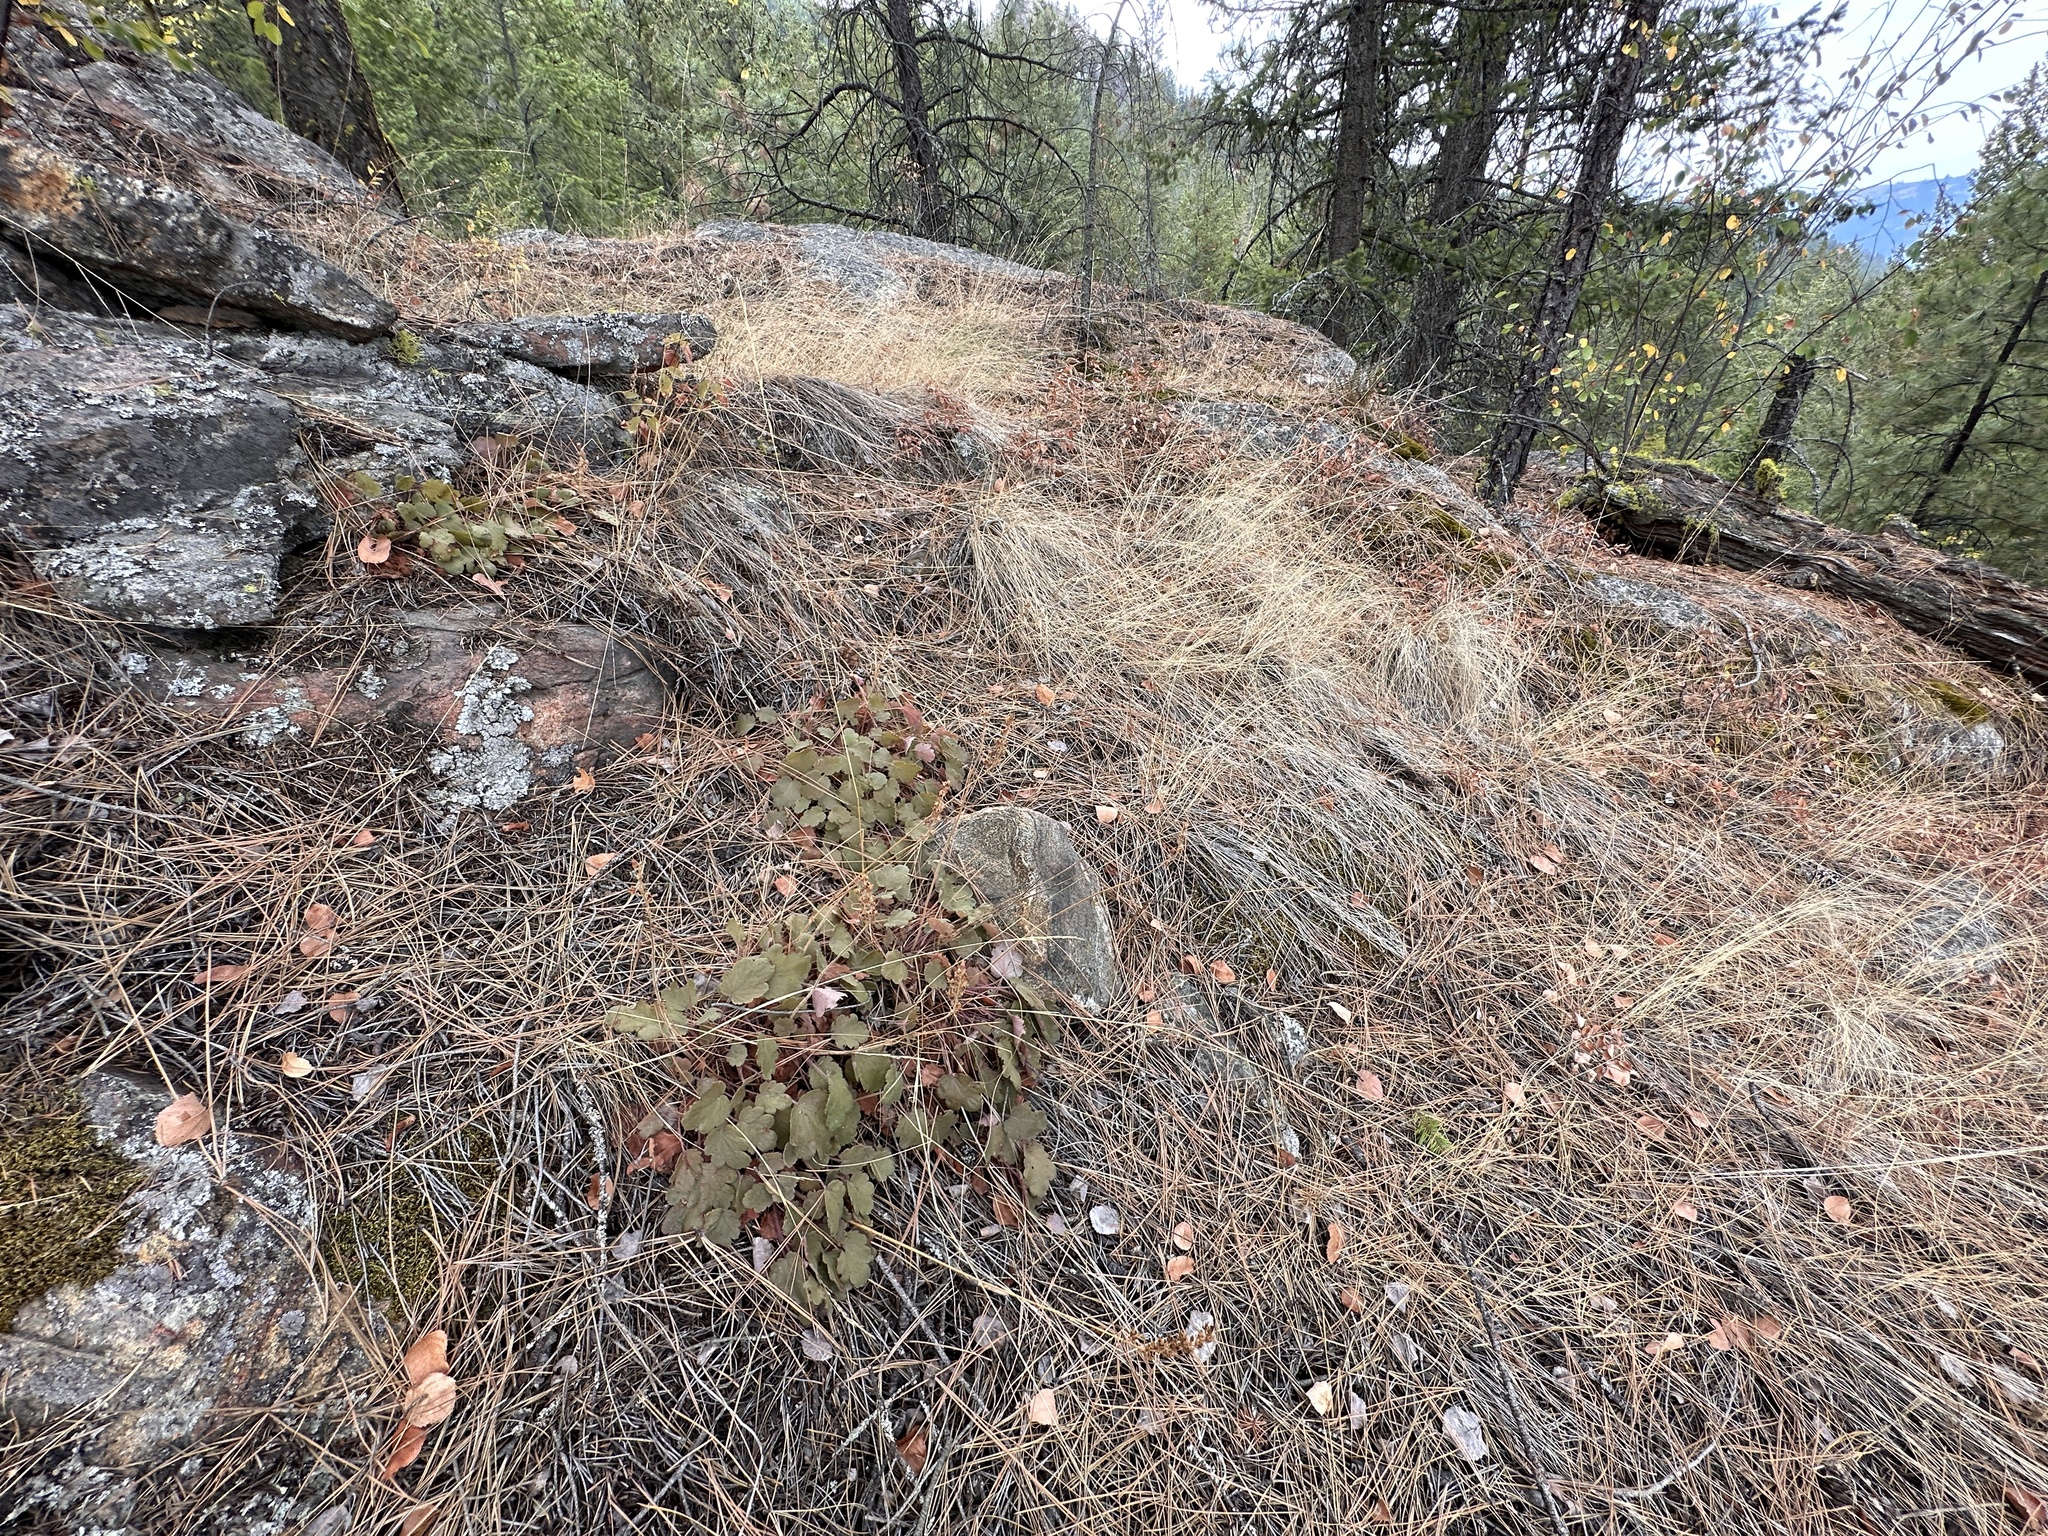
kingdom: Plantae
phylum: Tracheophyta
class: Magnoliopsida
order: Saxifragales
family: Saxifragaceae
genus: Heuchera
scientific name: Heuchera cylindrica
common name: Mat alumroot
